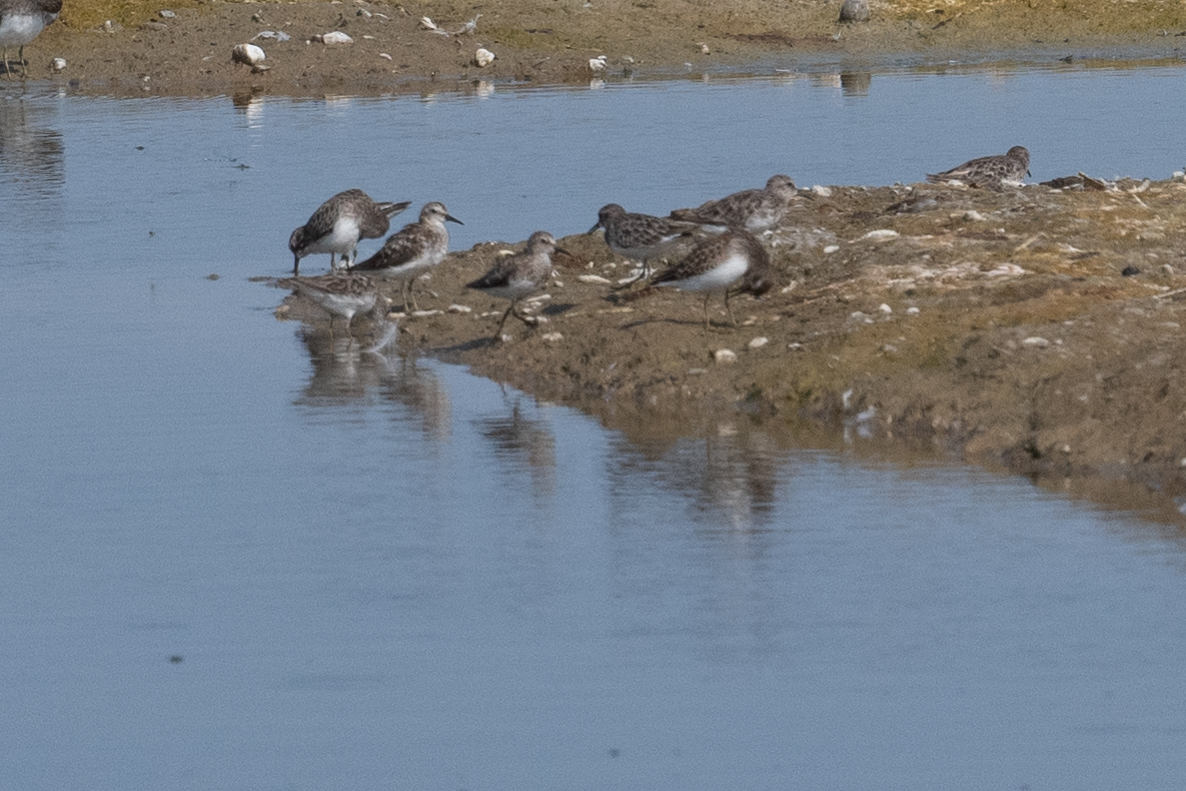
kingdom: Animalia
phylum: Chordata
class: Aves
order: Charadriiformes
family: Scolopacidae
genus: Calidris
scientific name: Calidris minutilla
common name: Least sandpiper
